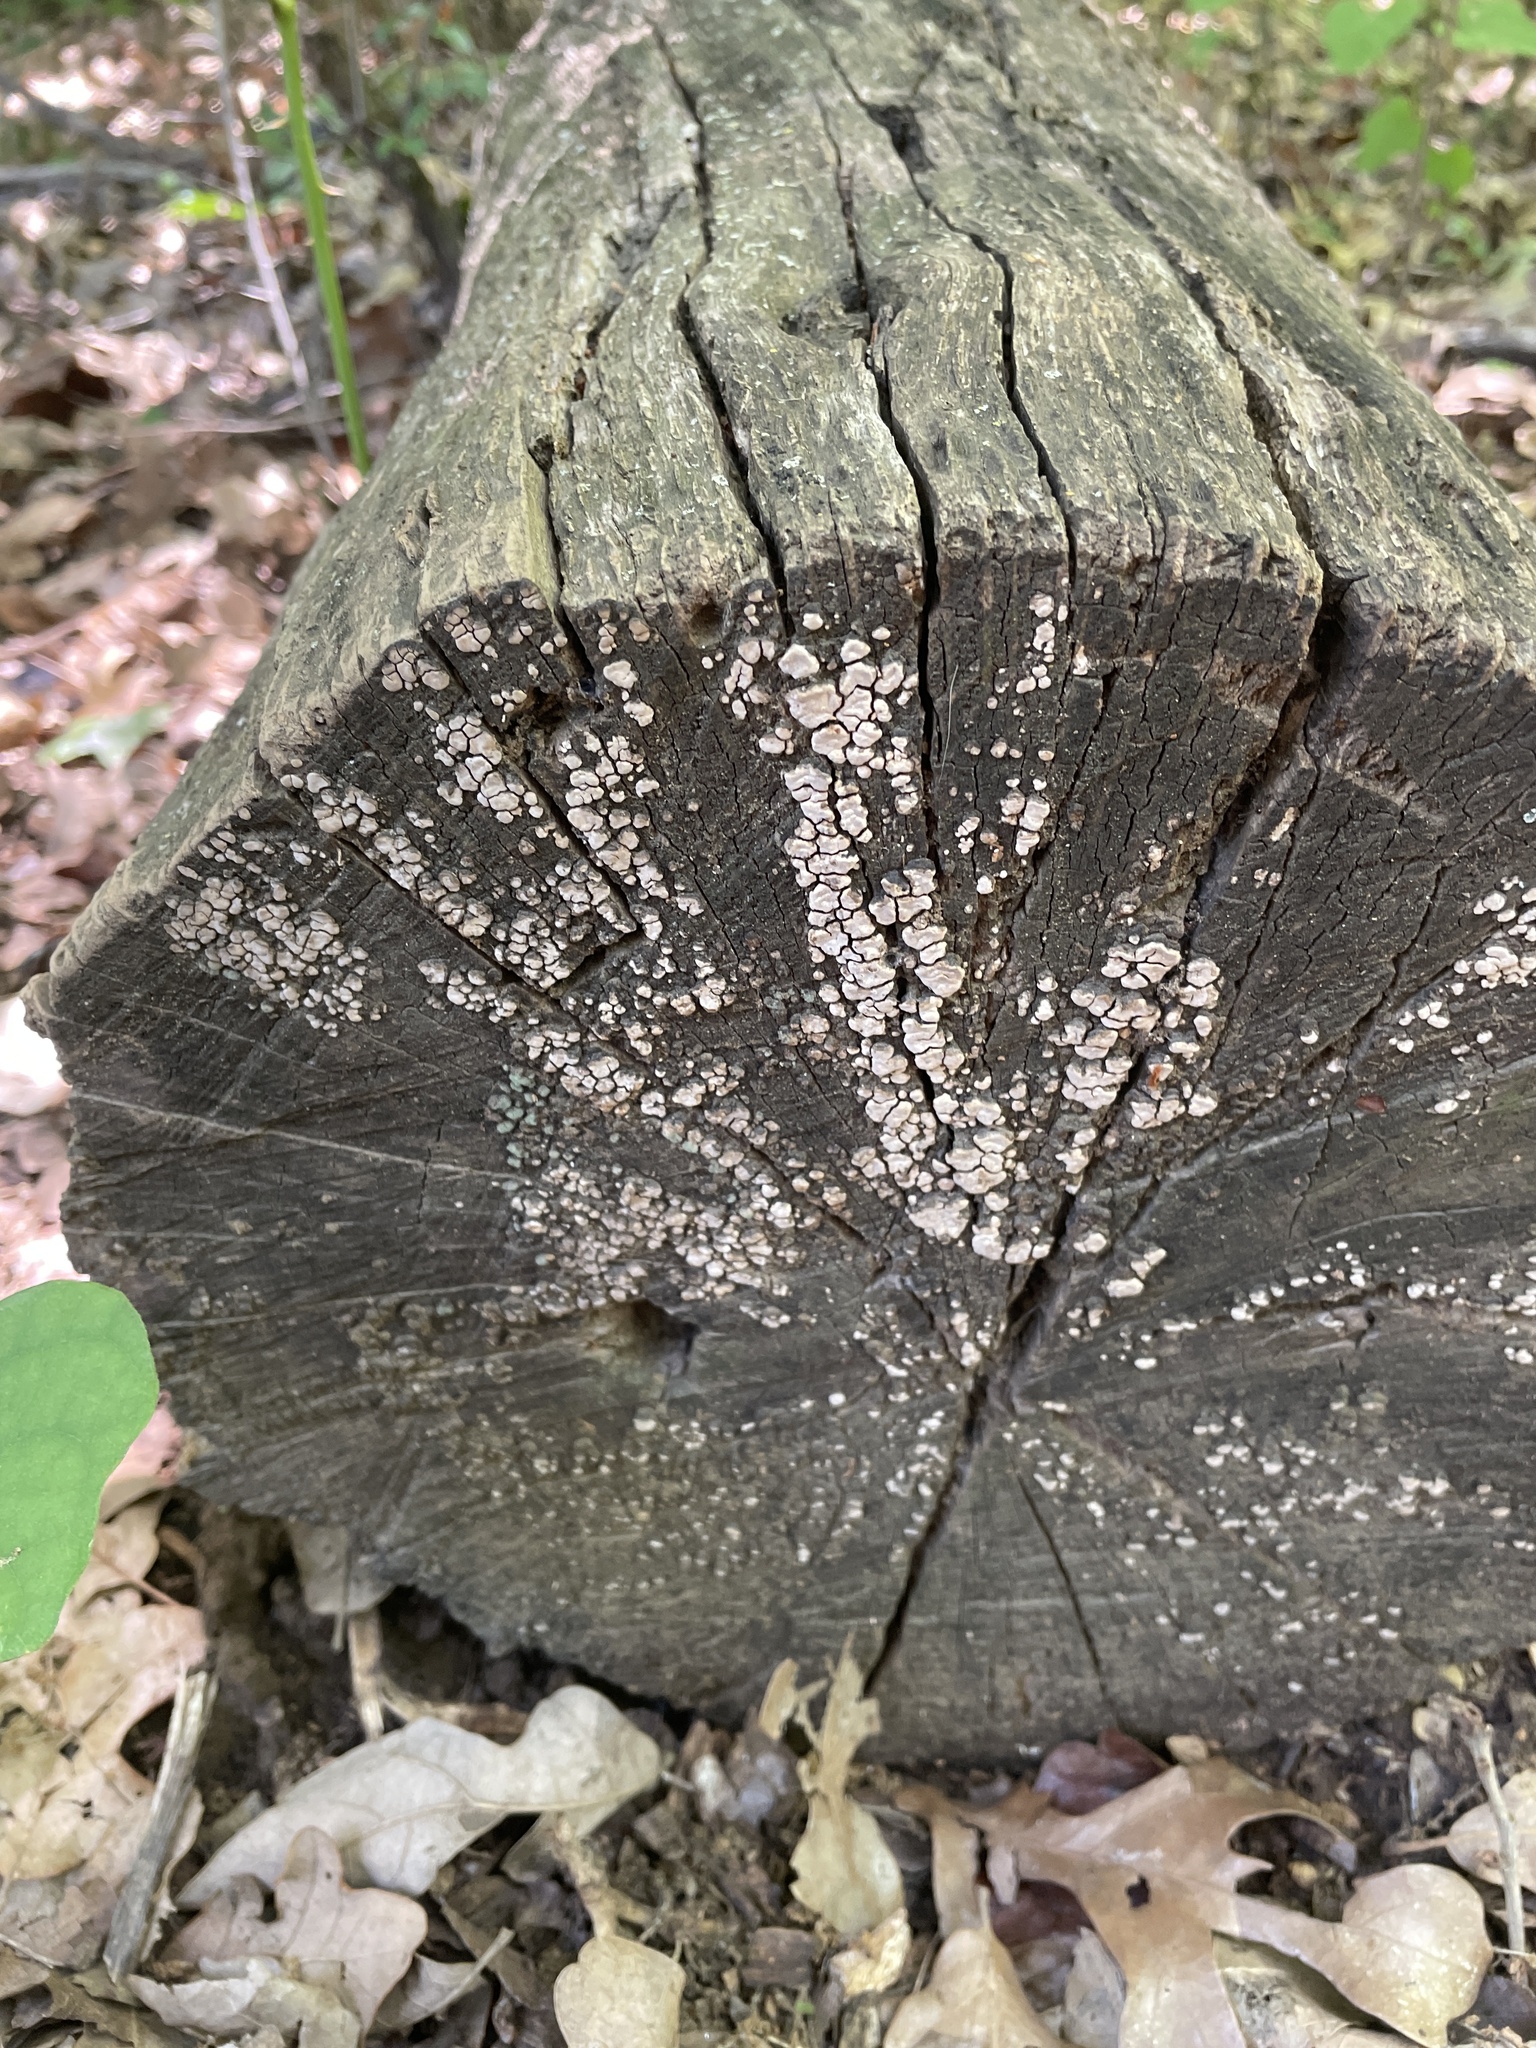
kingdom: Fungi
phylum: Basidiomycota
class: Agaricomycetes
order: Russulales
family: Stereaceae
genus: Xylobolus
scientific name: Xylobolus frustulatus
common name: Ceramic parchment
